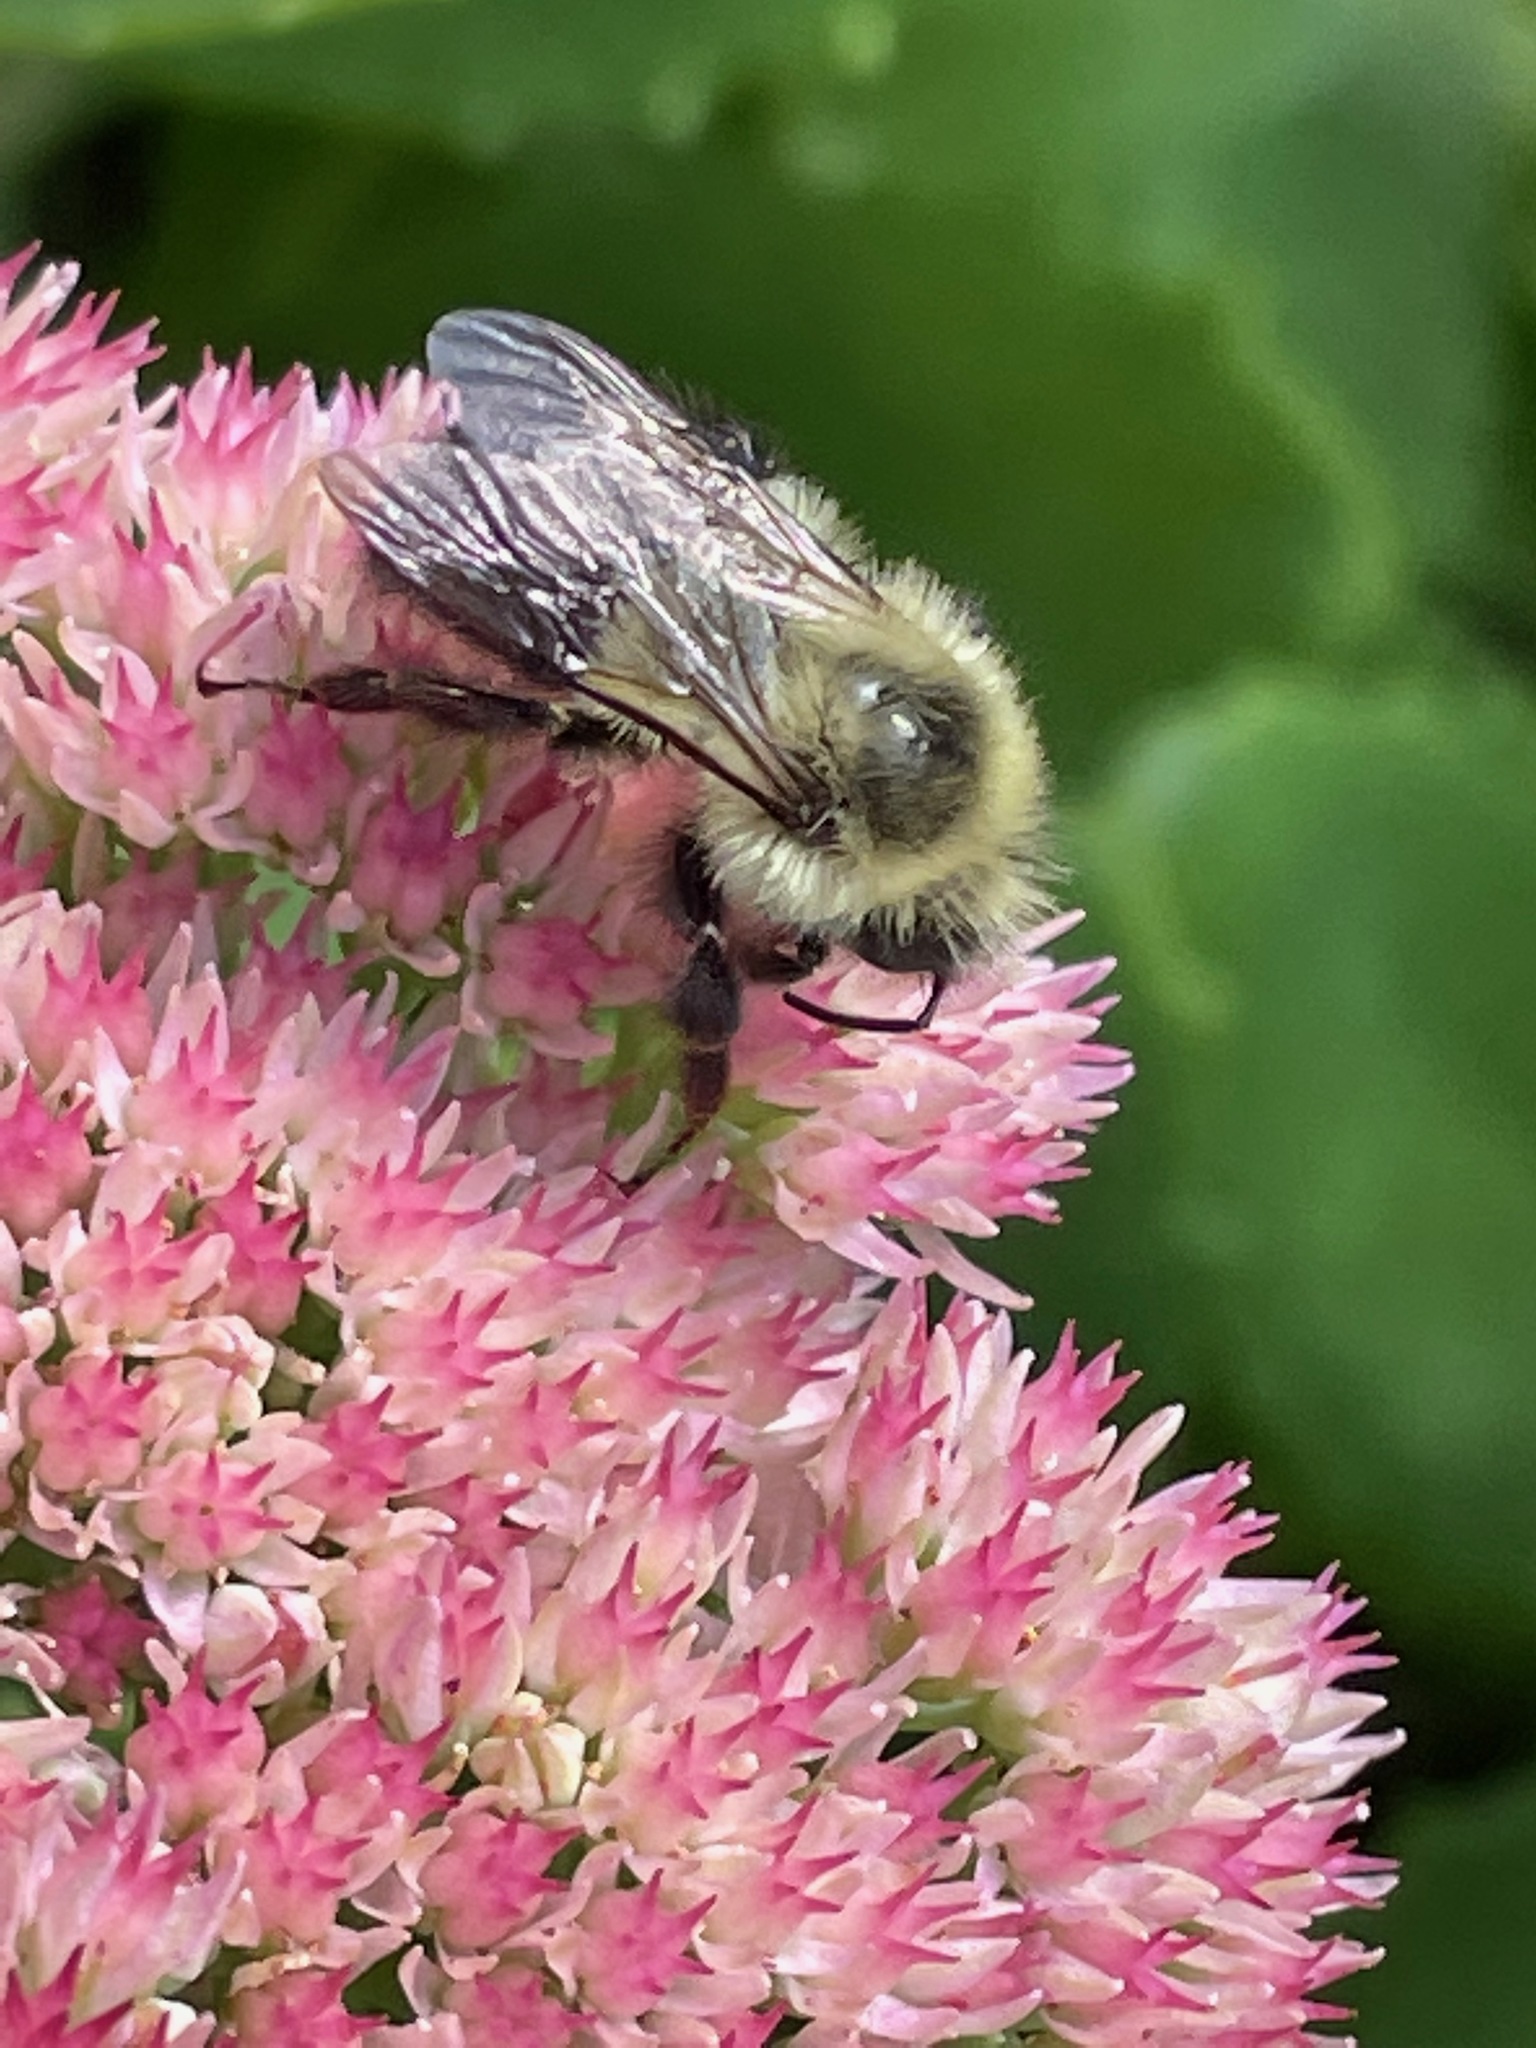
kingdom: Animalia
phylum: Arthropoda
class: Insecta
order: Hymenoptera
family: Apidae
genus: Bombus
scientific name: Bombus impatiens
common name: Common eastern bumble bee
